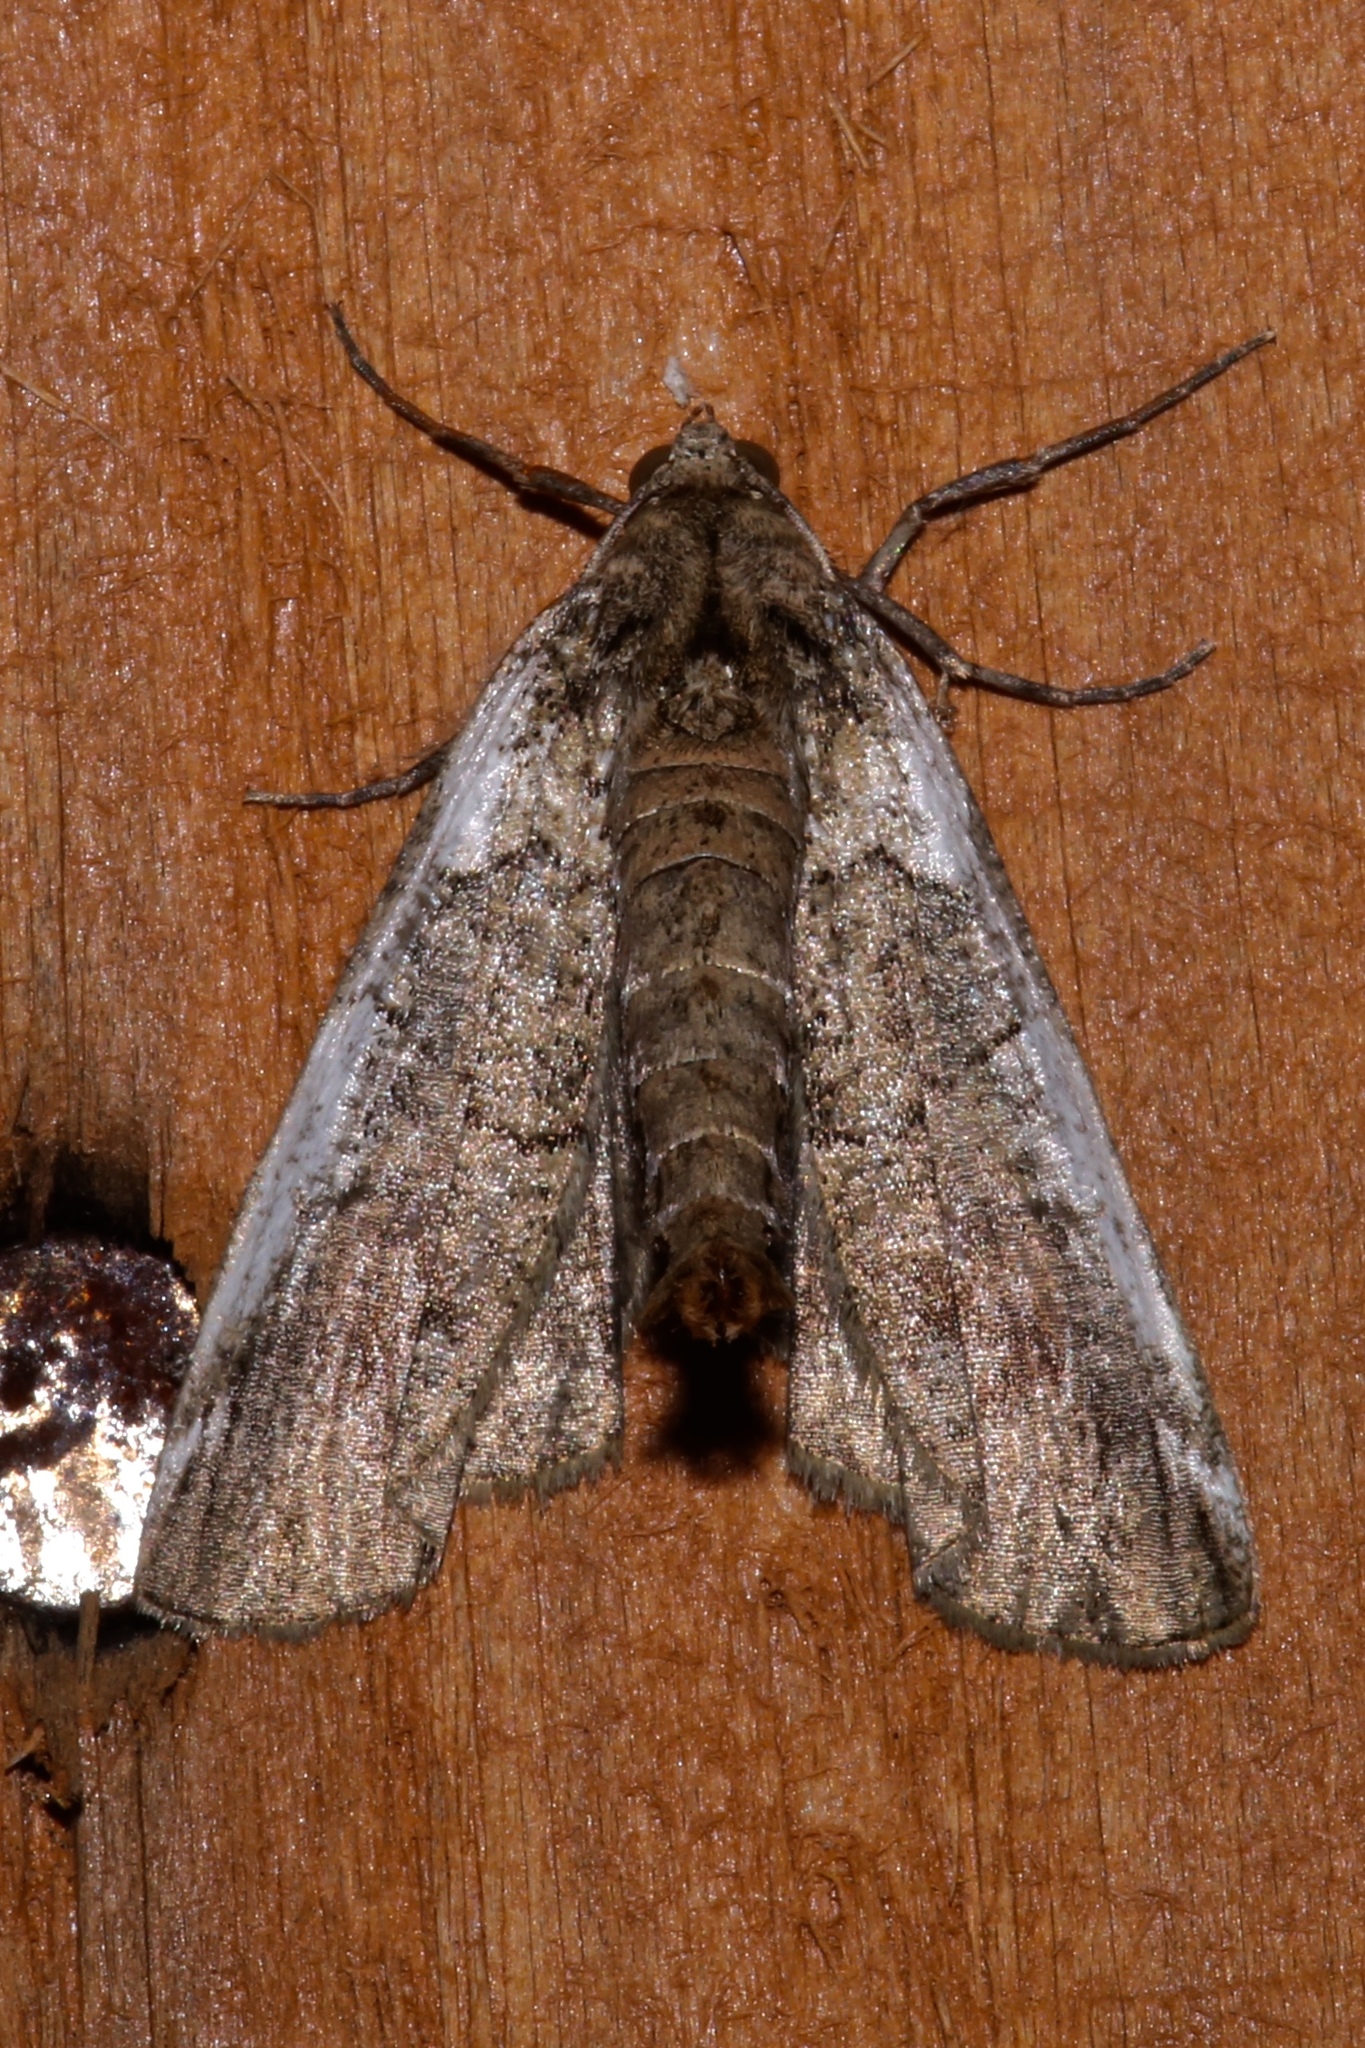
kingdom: Animalia
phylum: Arthropoda
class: Insecta
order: Lepidoptera
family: Geometridae
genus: Ceratonyx
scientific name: Ceratonyx satanaria
